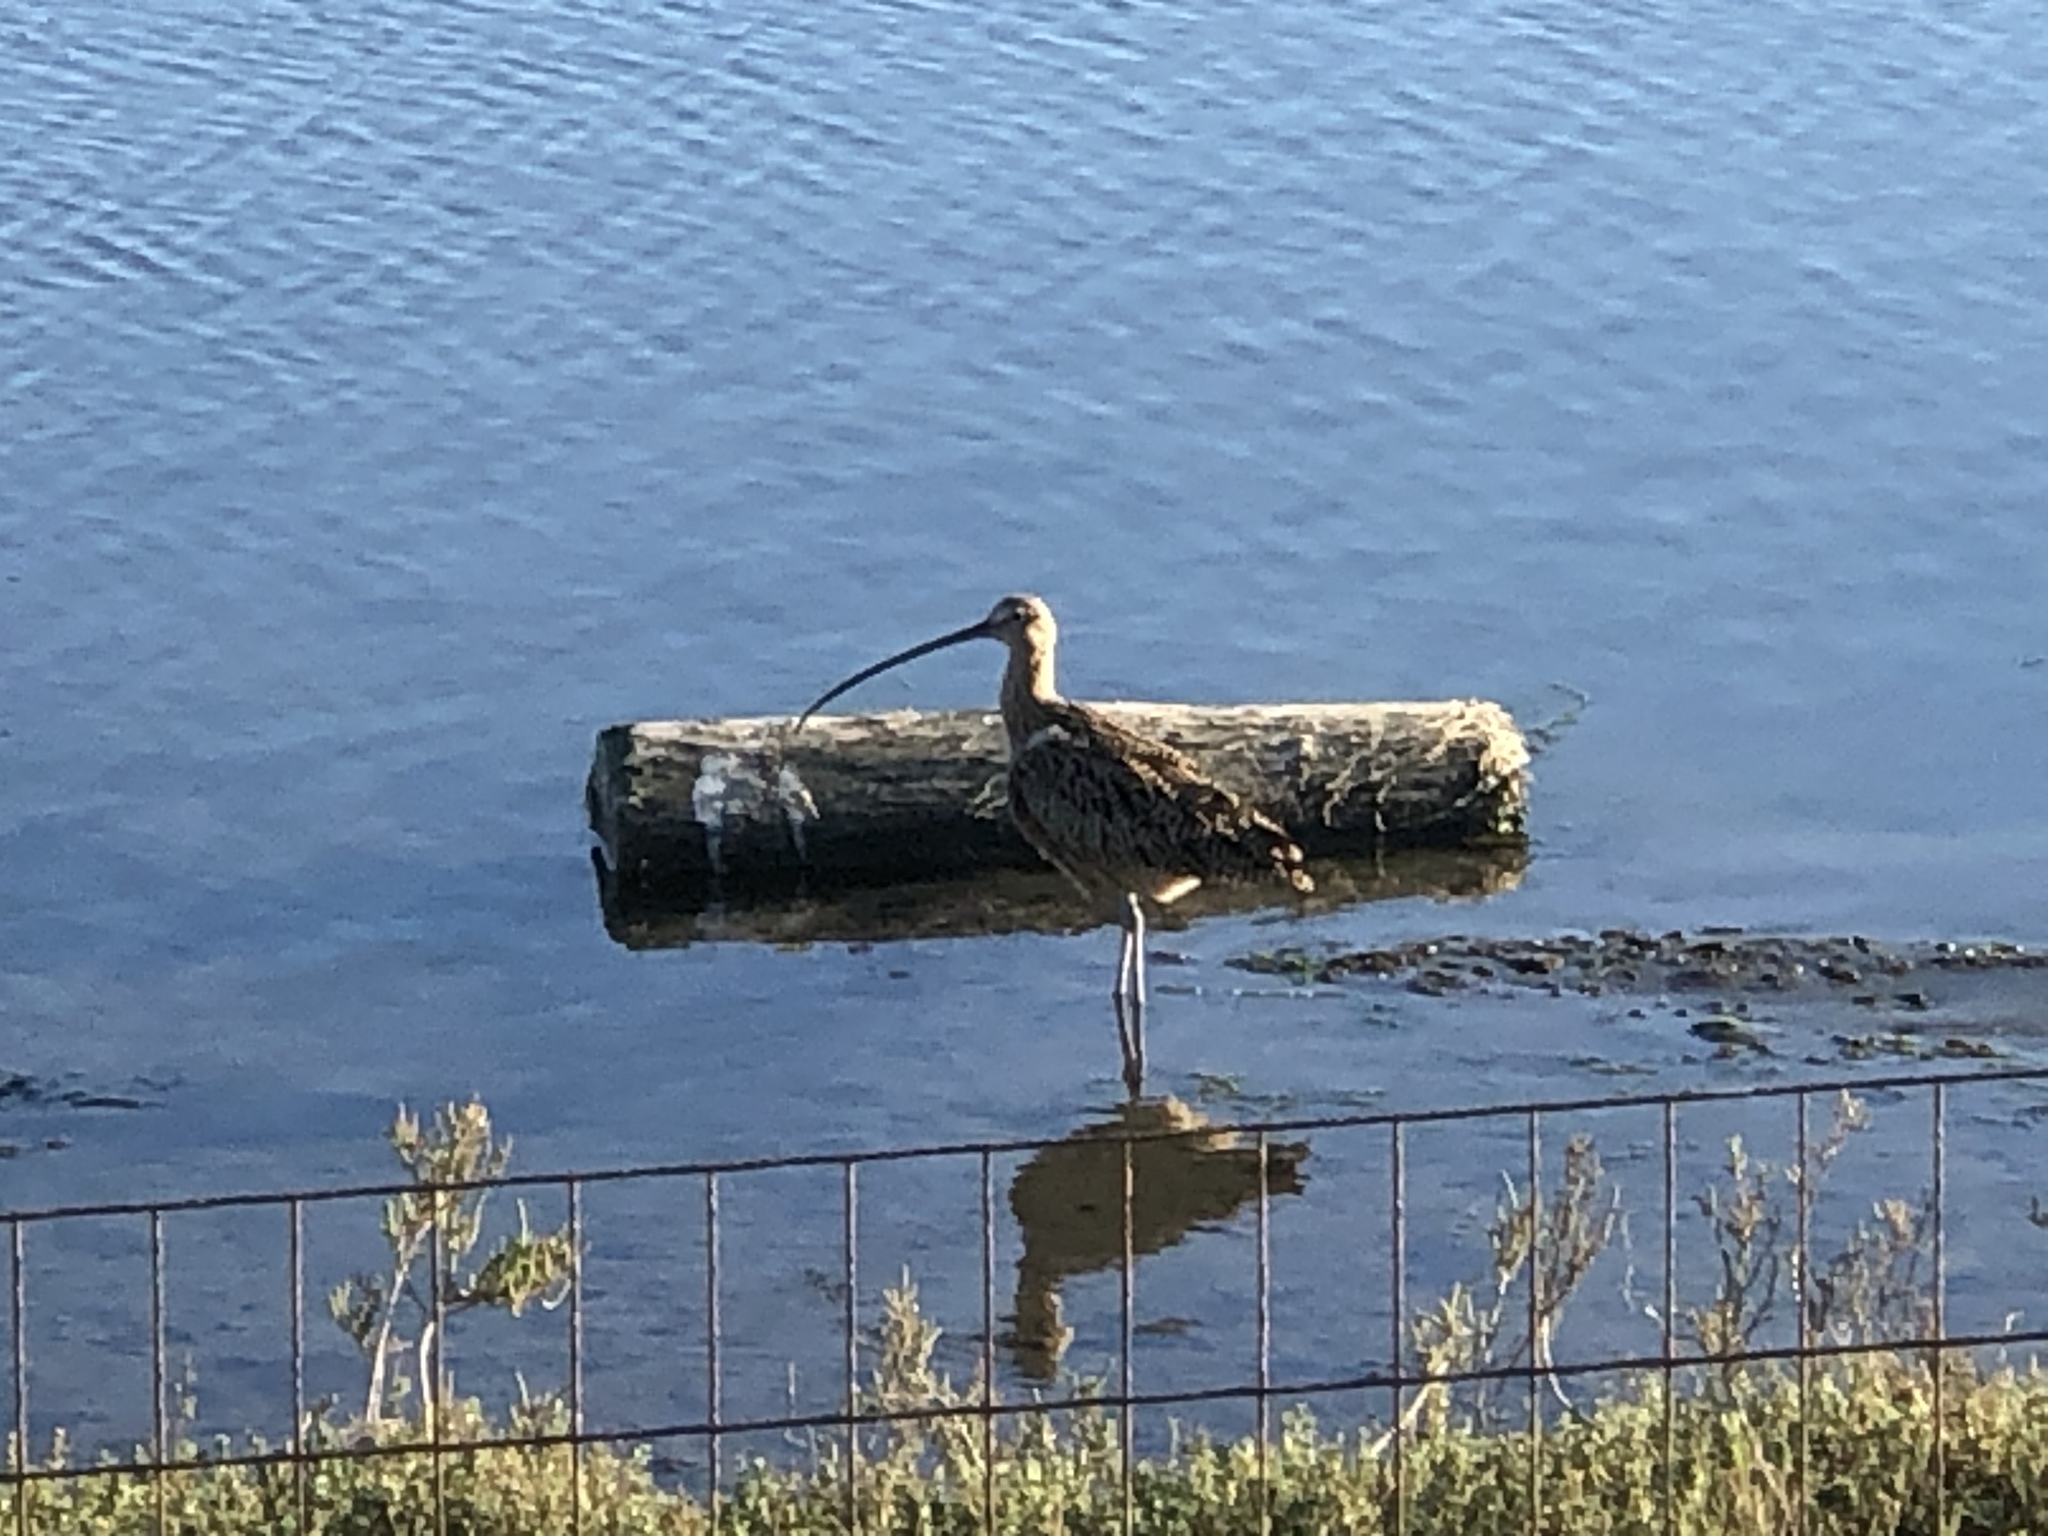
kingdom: Animalia
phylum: Chordata
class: Aves
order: Charadriiformes
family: Scolopacidae
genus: Numenius
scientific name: Numenius americanus
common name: Long-billed curlew
